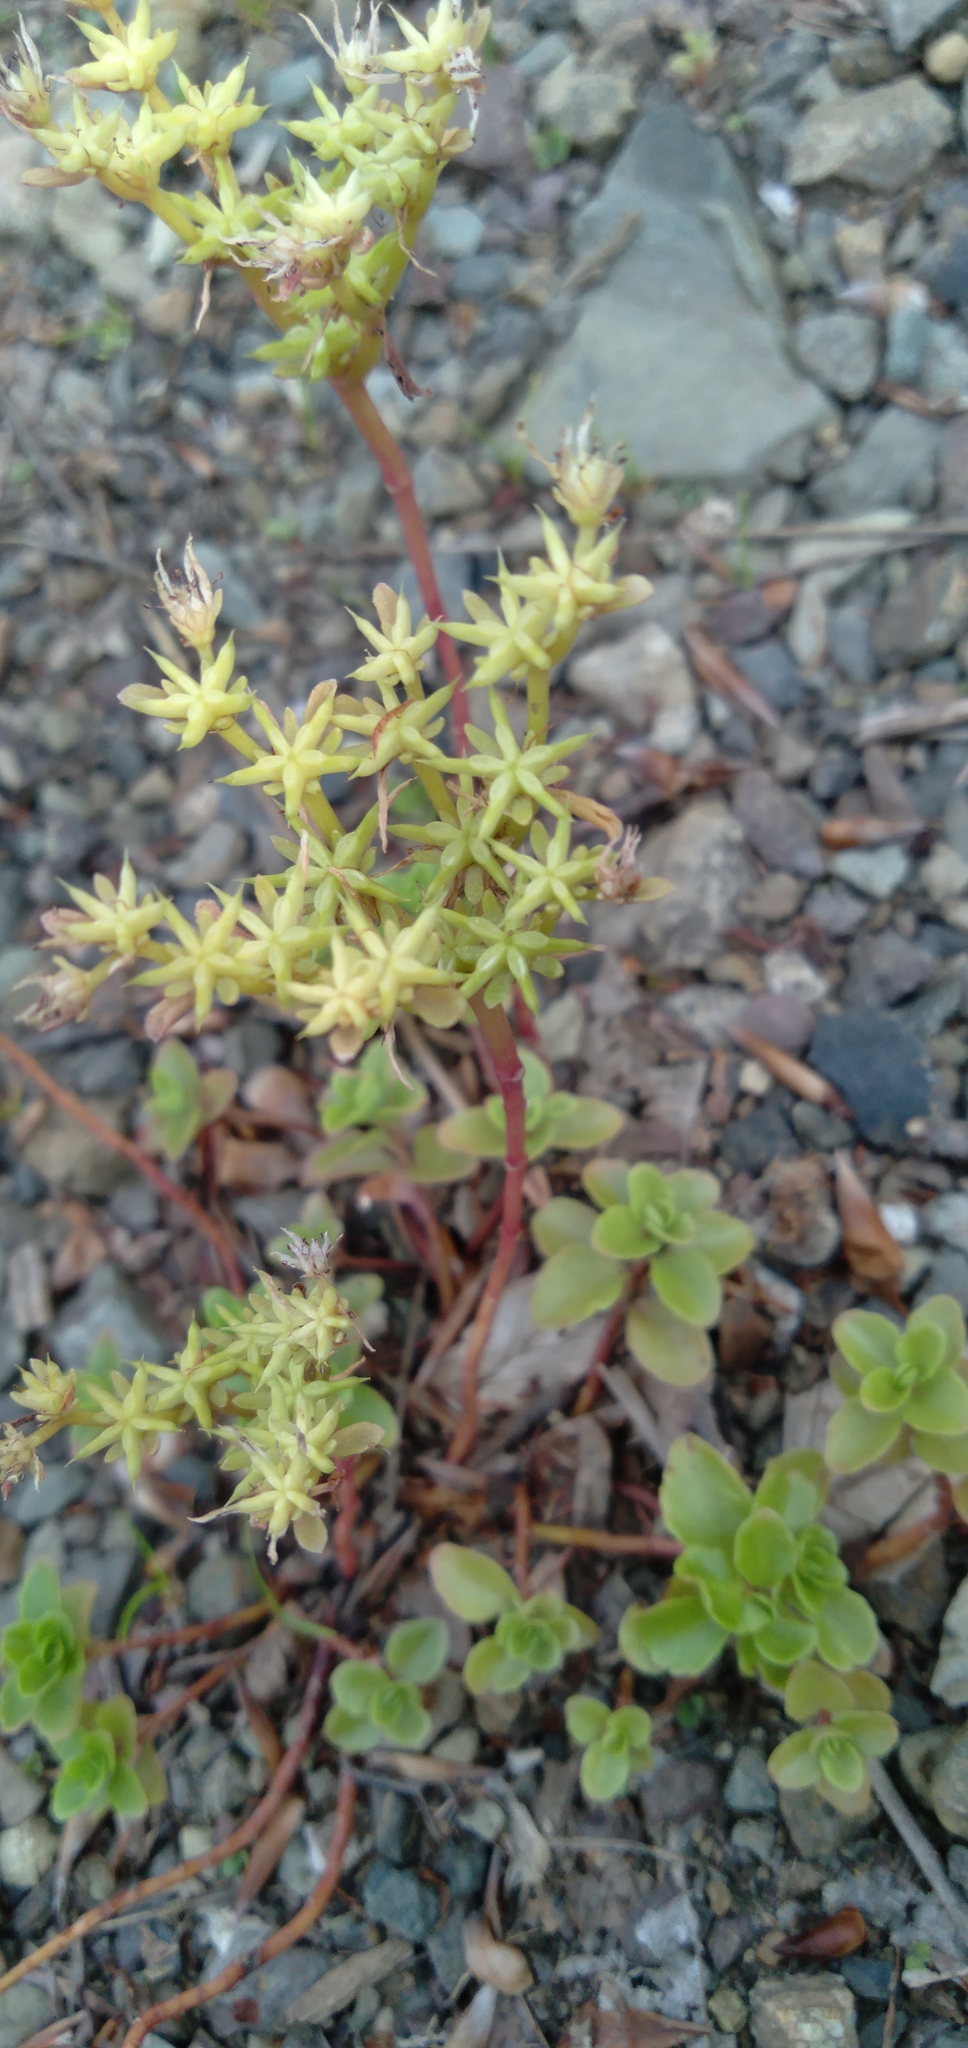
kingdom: Plantae
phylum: Tracheophyta
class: Magnoliopsida
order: Saxifragales
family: Crassulaceae
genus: Phedimus
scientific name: Phedimus spurius
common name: Caucasian stonecrop
